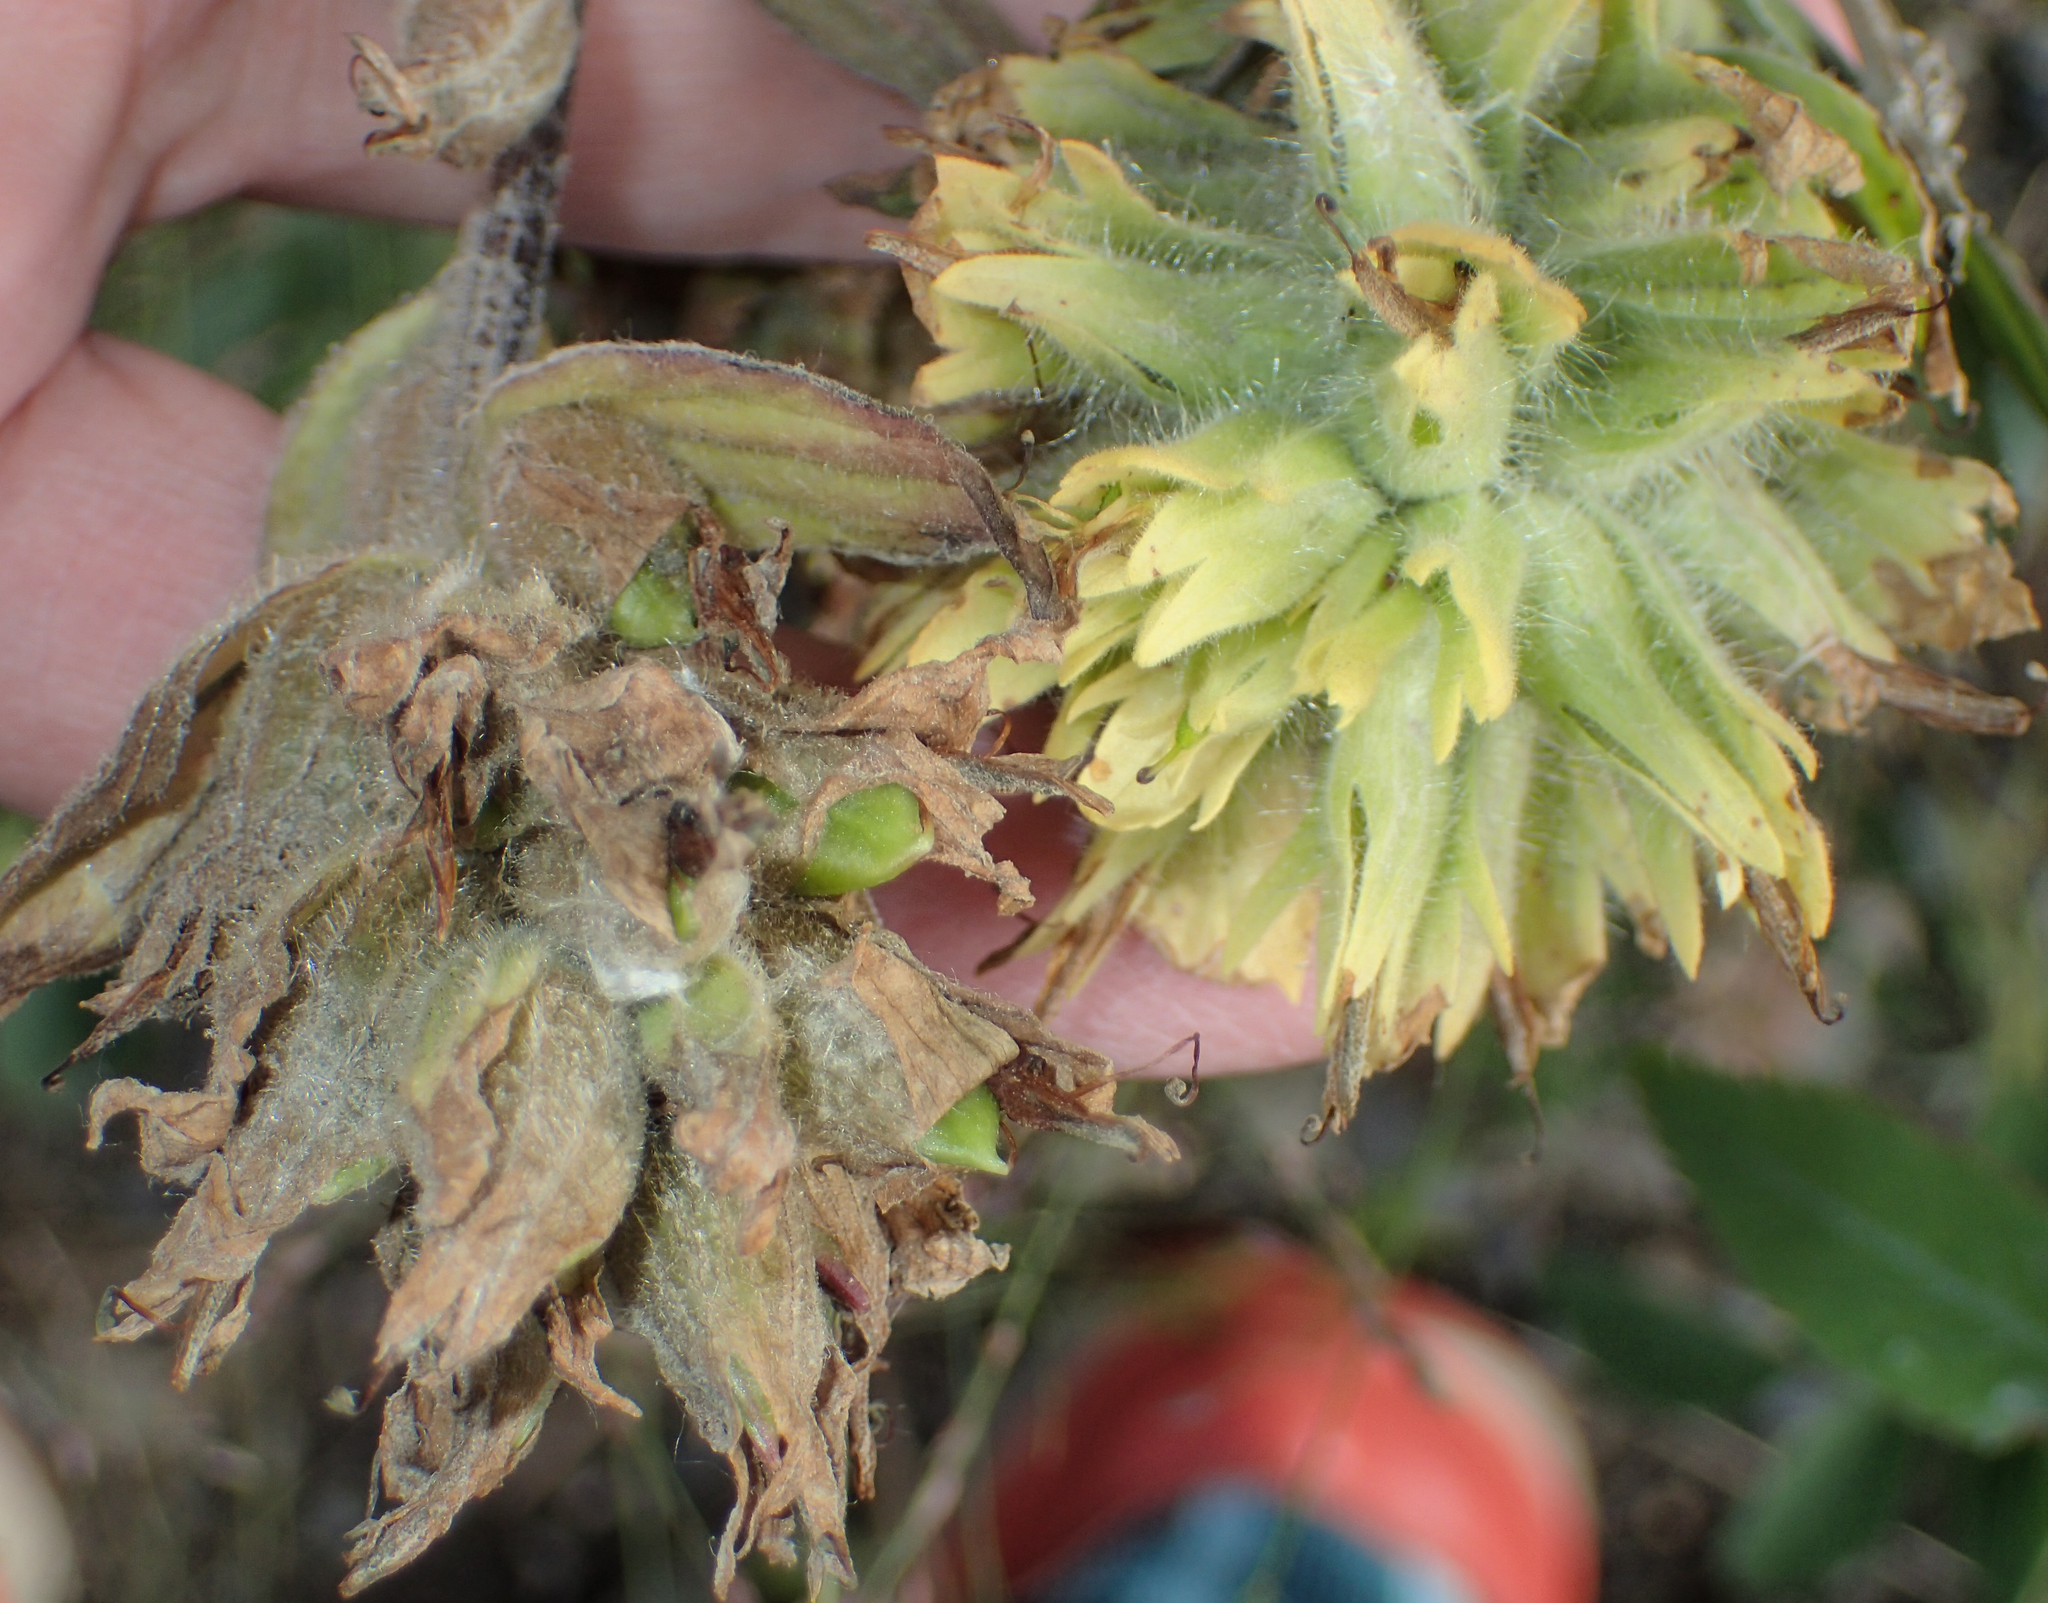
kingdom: Plantae
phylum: Tracheophyta
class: Magnoliopsida
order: Lamiales
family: Orobanchaceae
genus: Castilleja
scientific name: Castilleja unalaschcensis
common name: Unalaska paintbrush
